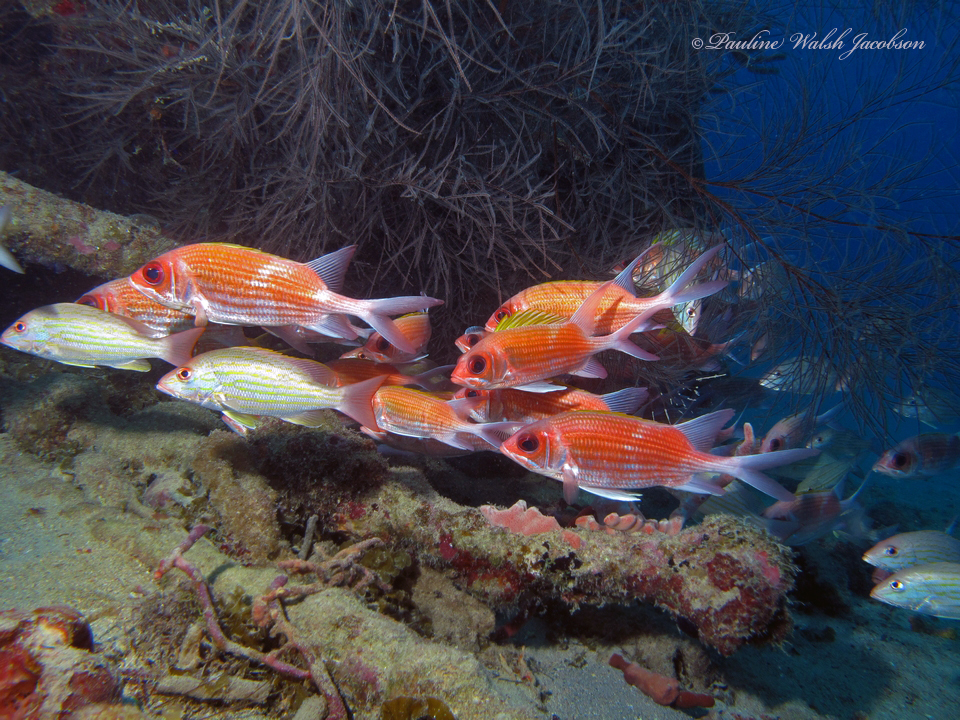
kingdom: Animalia
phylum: Chordata
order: Perciformes
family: Lutjanidae
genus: Lutjanus
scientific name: Lutjanus synagris
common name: Lane snapper
